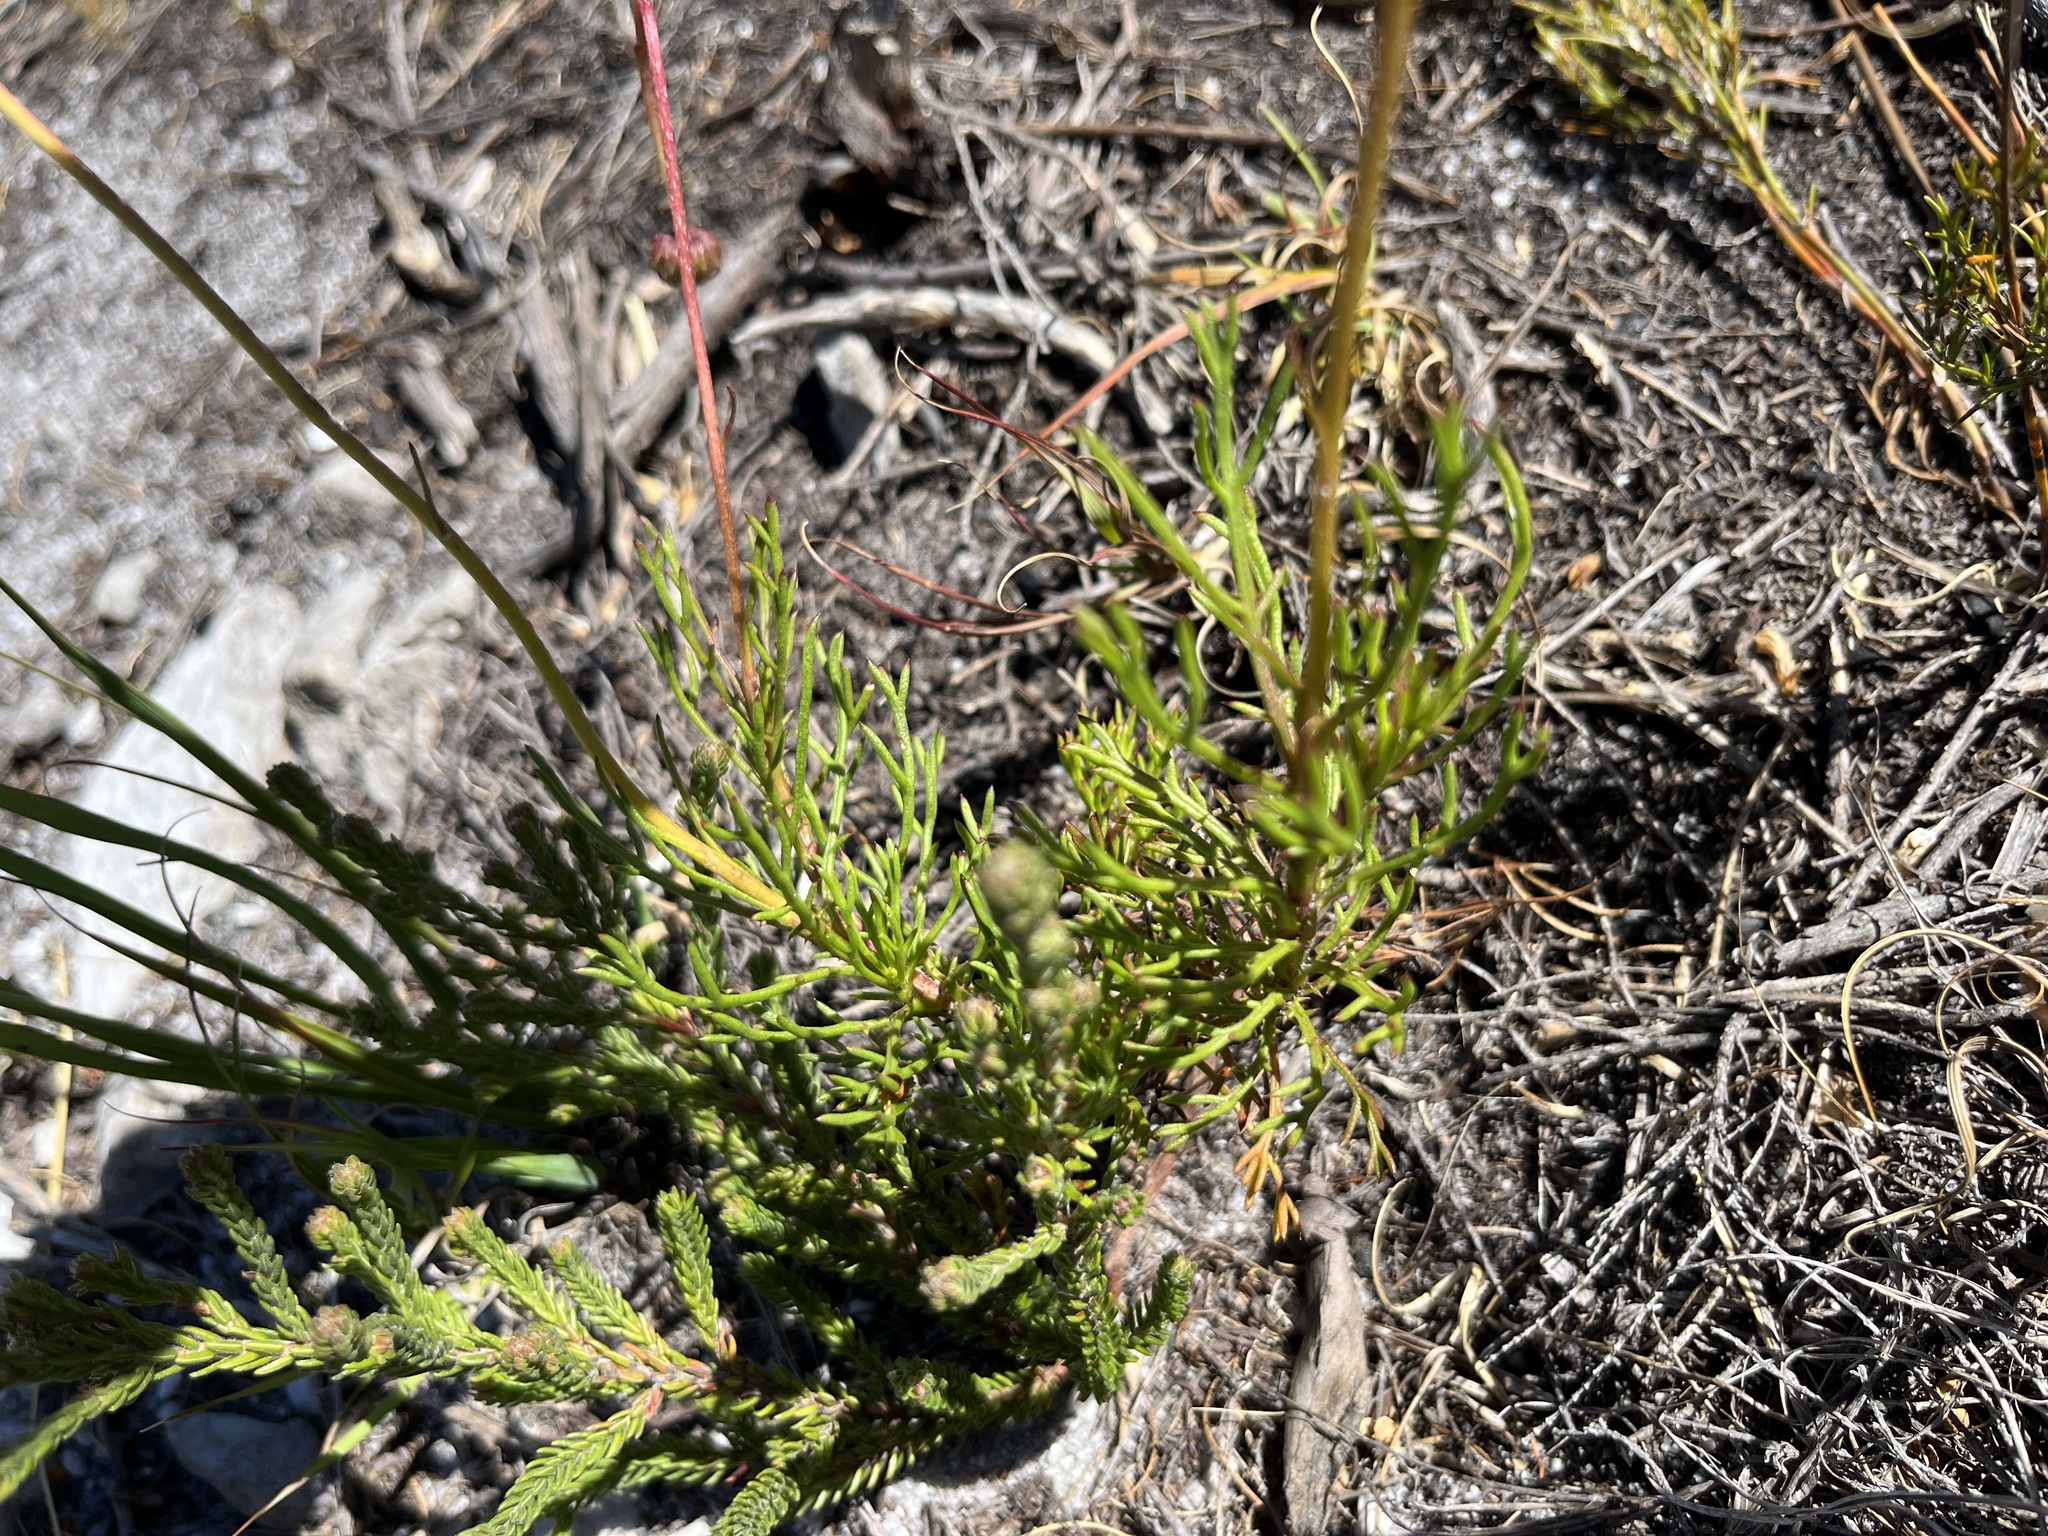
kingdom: Plantae
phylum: Tracheophyta
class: Magnoliopsida
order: Asterales
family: Asteraceae
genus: Ursinia
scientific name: Ursinia oreogena
